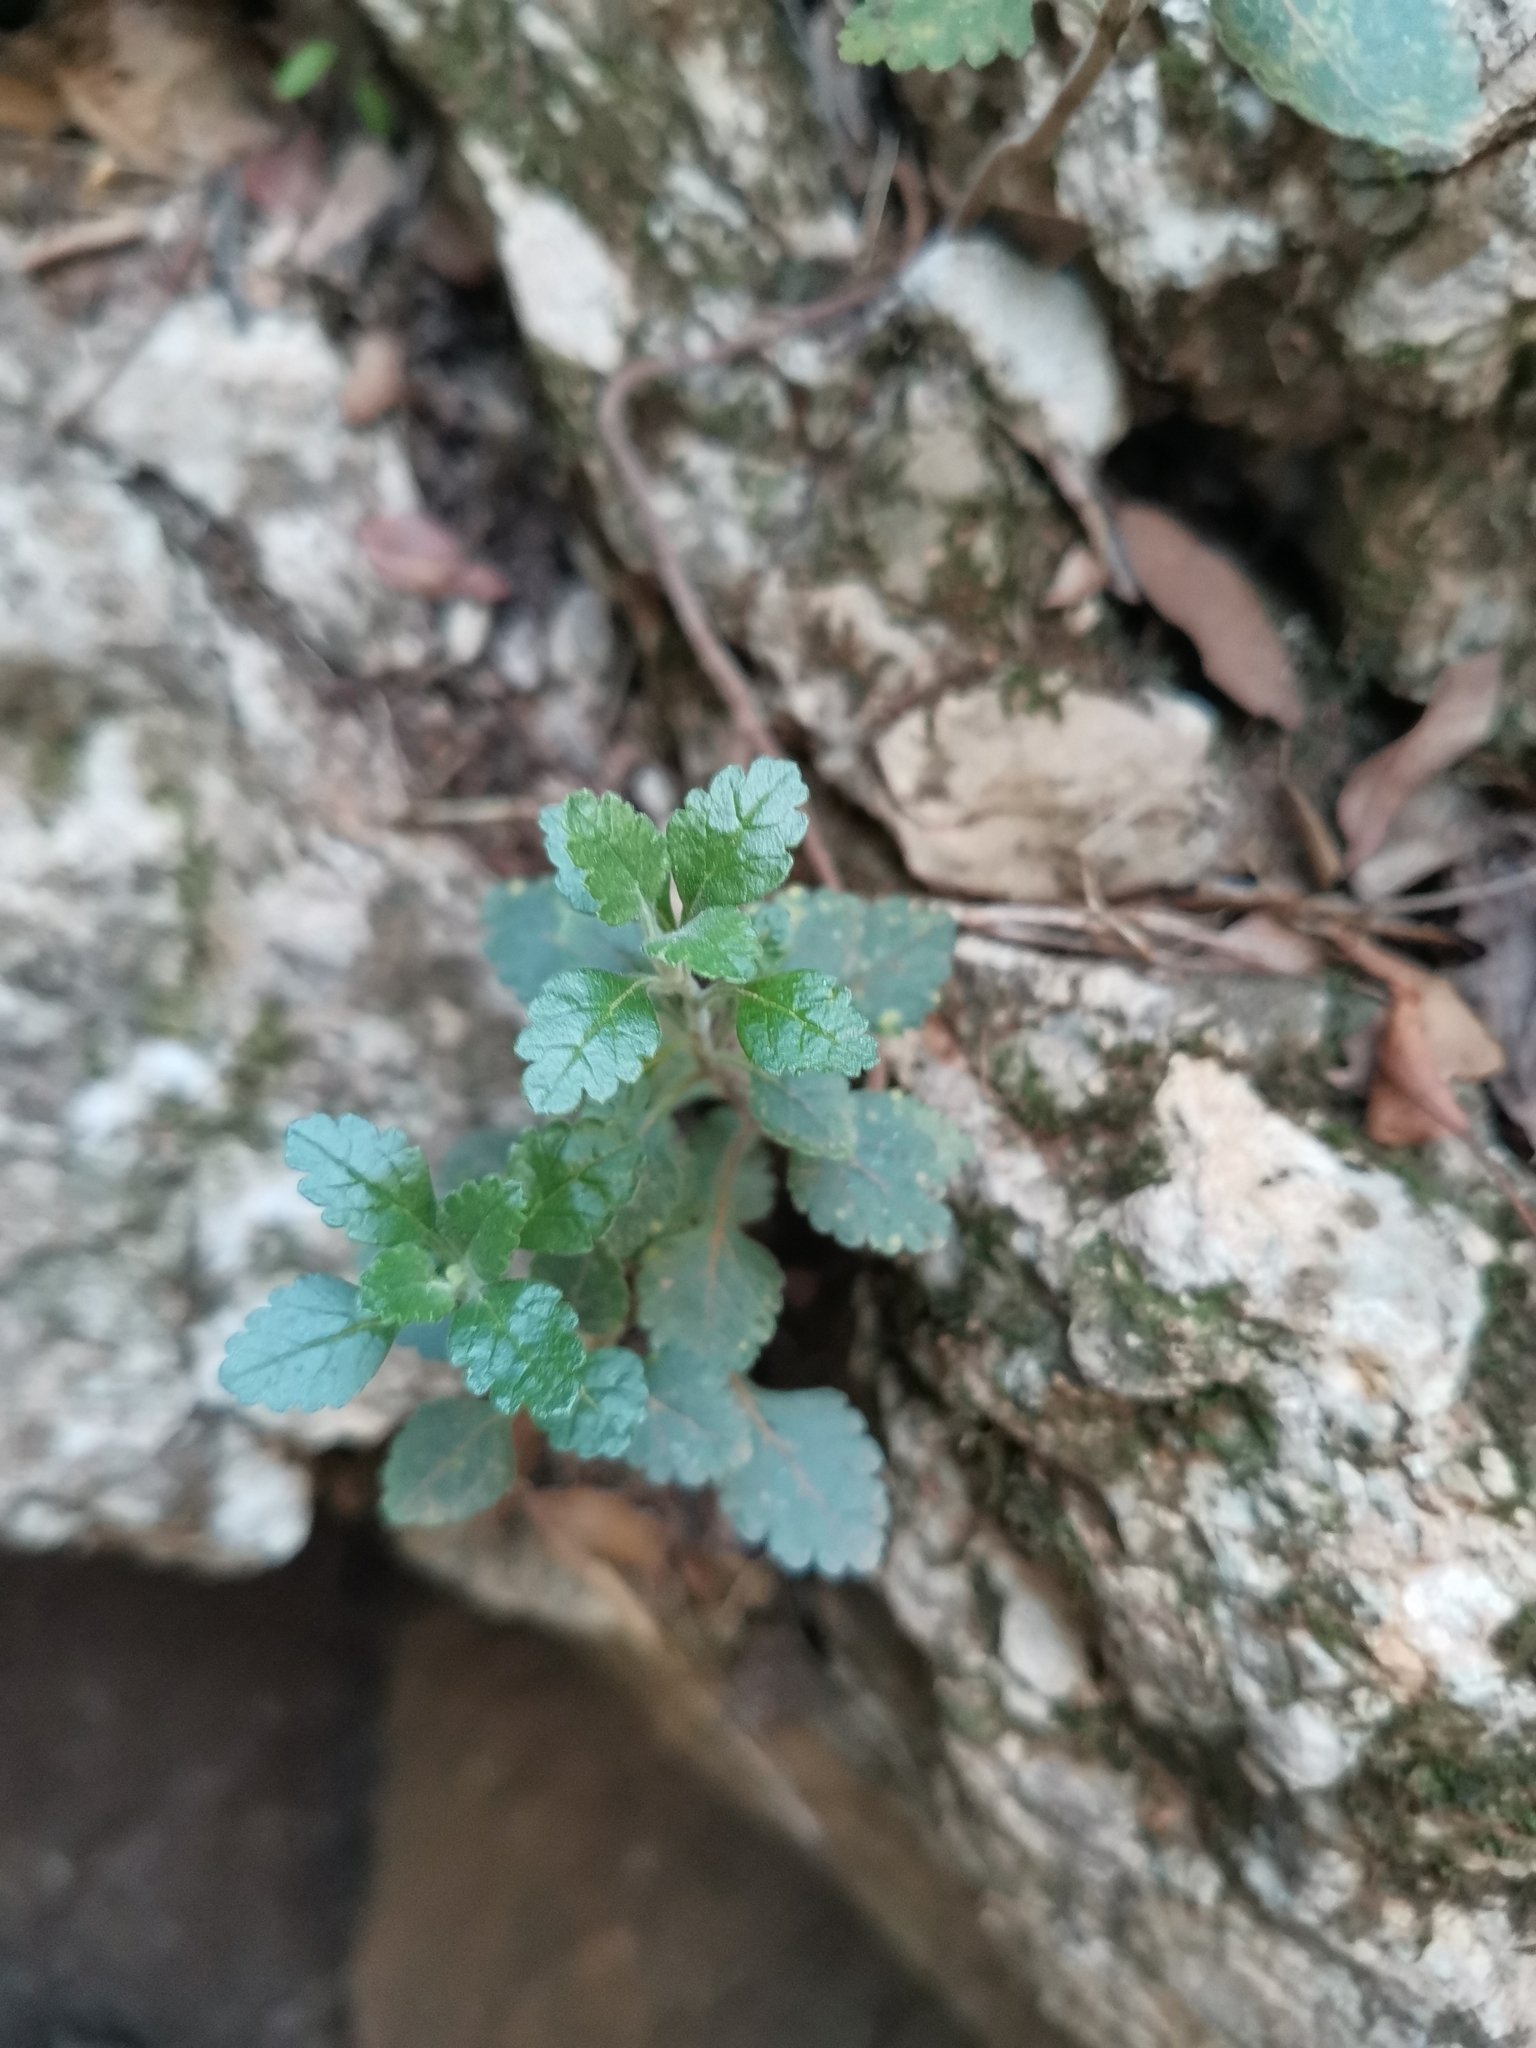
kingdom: Plantae
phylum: Tracheophyta
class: Magnoliopsida
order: Lamiales
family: Lamiaceae
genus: Teucrium
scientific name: Teucrium flavum
